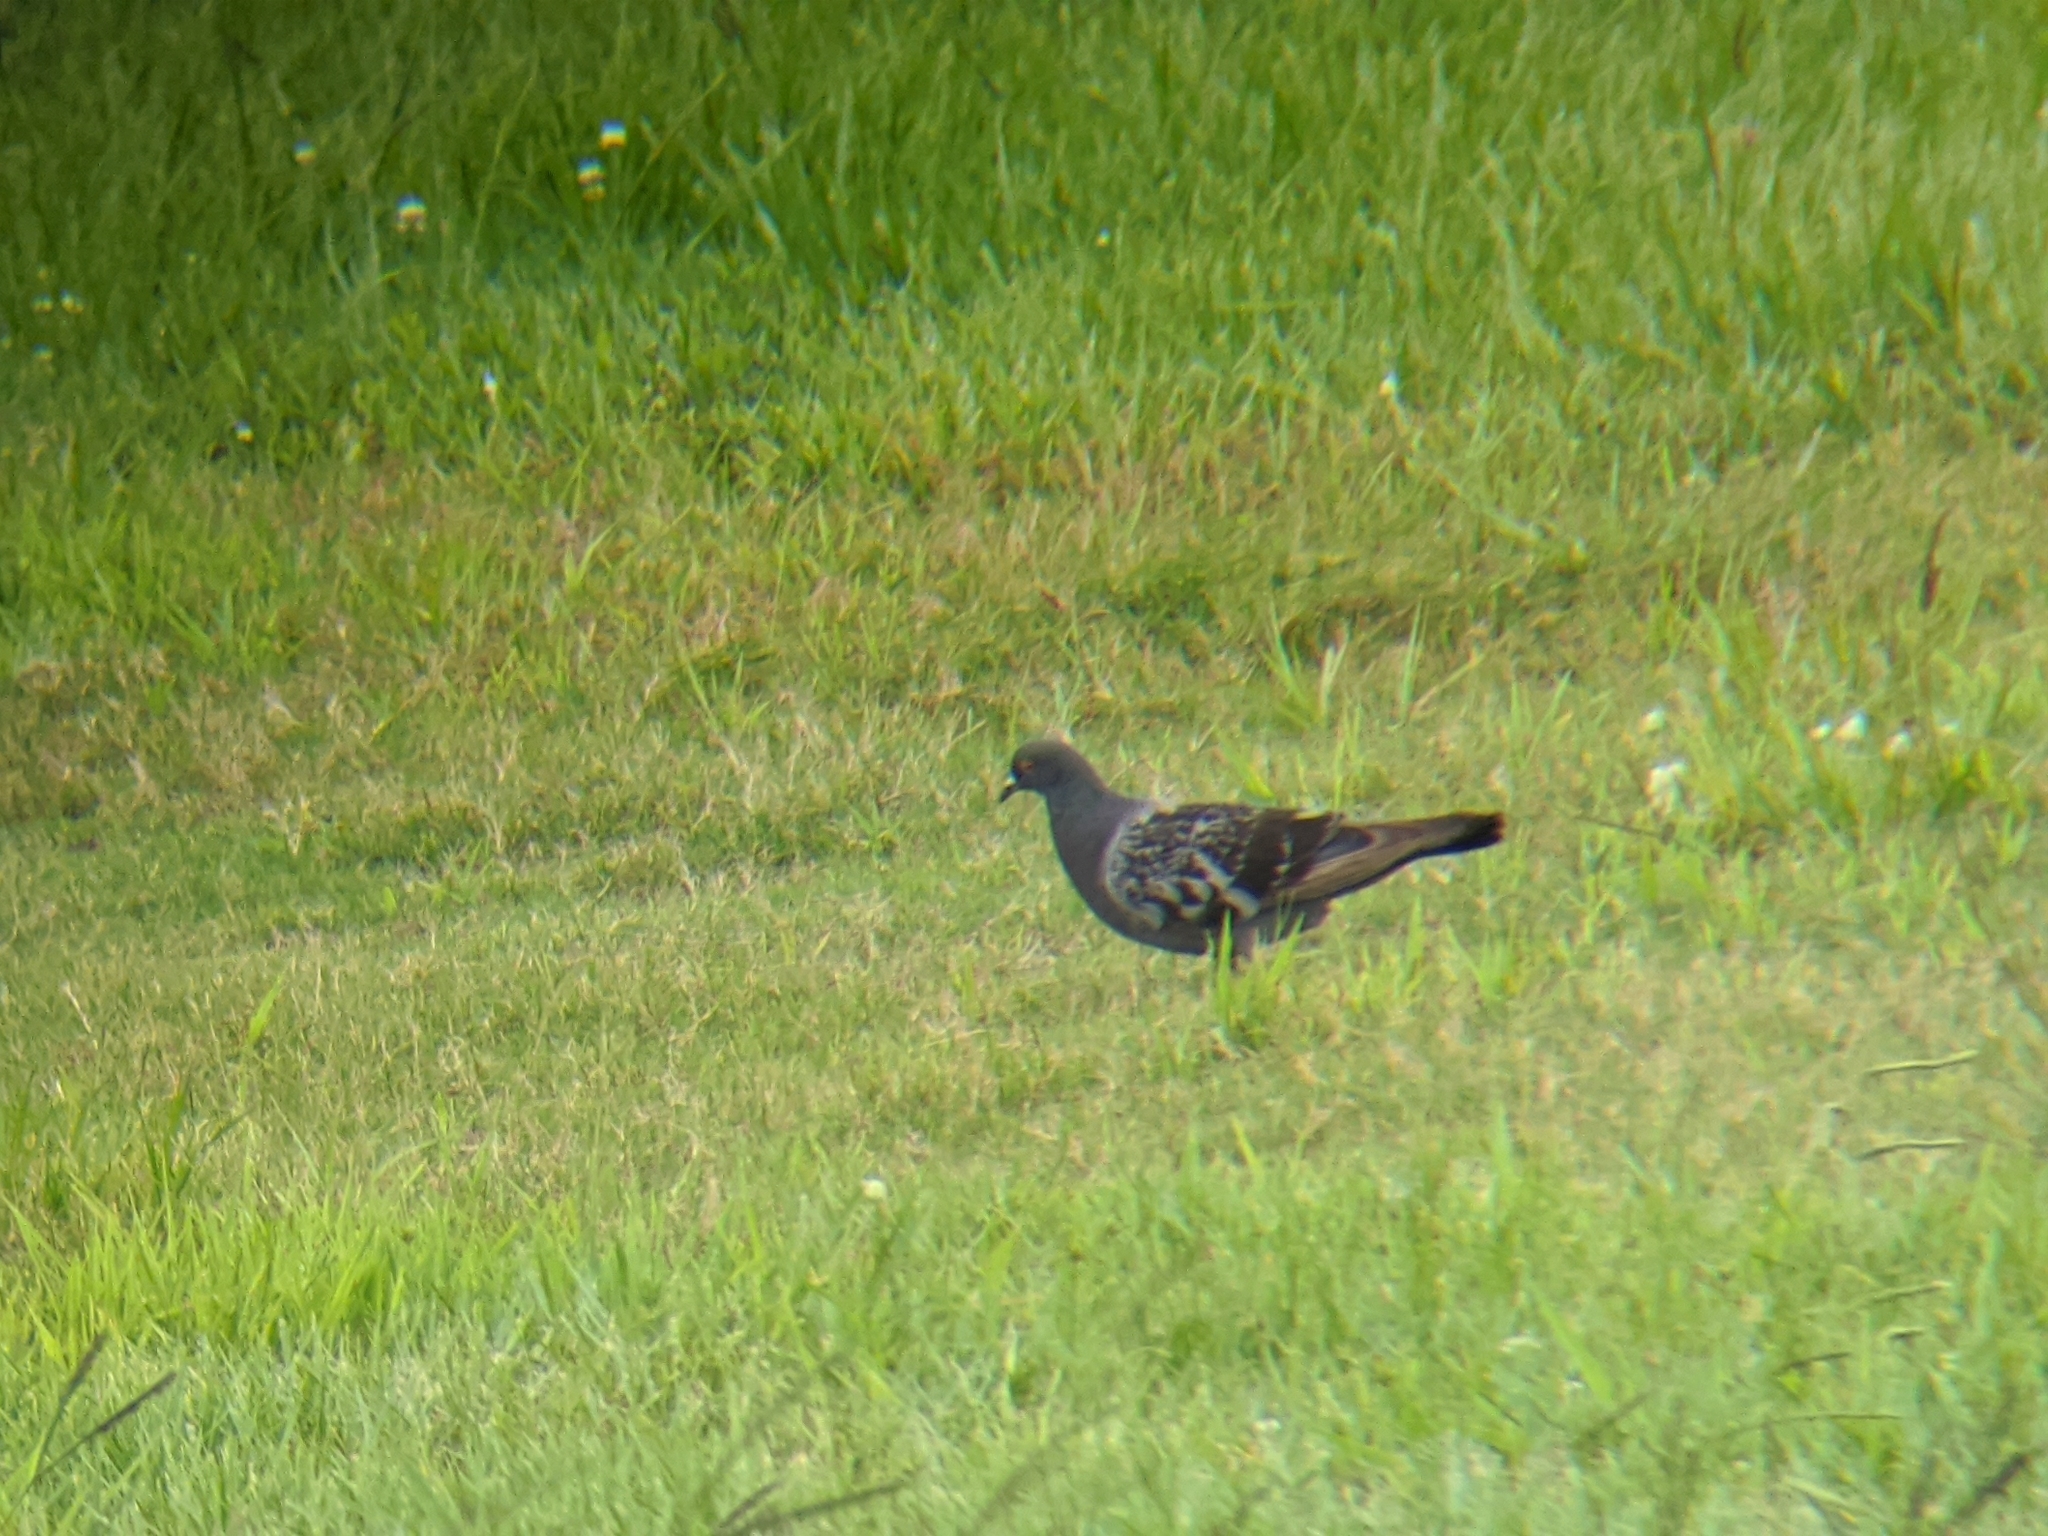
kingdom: Animalia
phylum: Chordata
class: Aves
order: Columbiformes
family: Columbidae
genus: Columba
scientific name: Columba livia
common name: Rock pigeon
